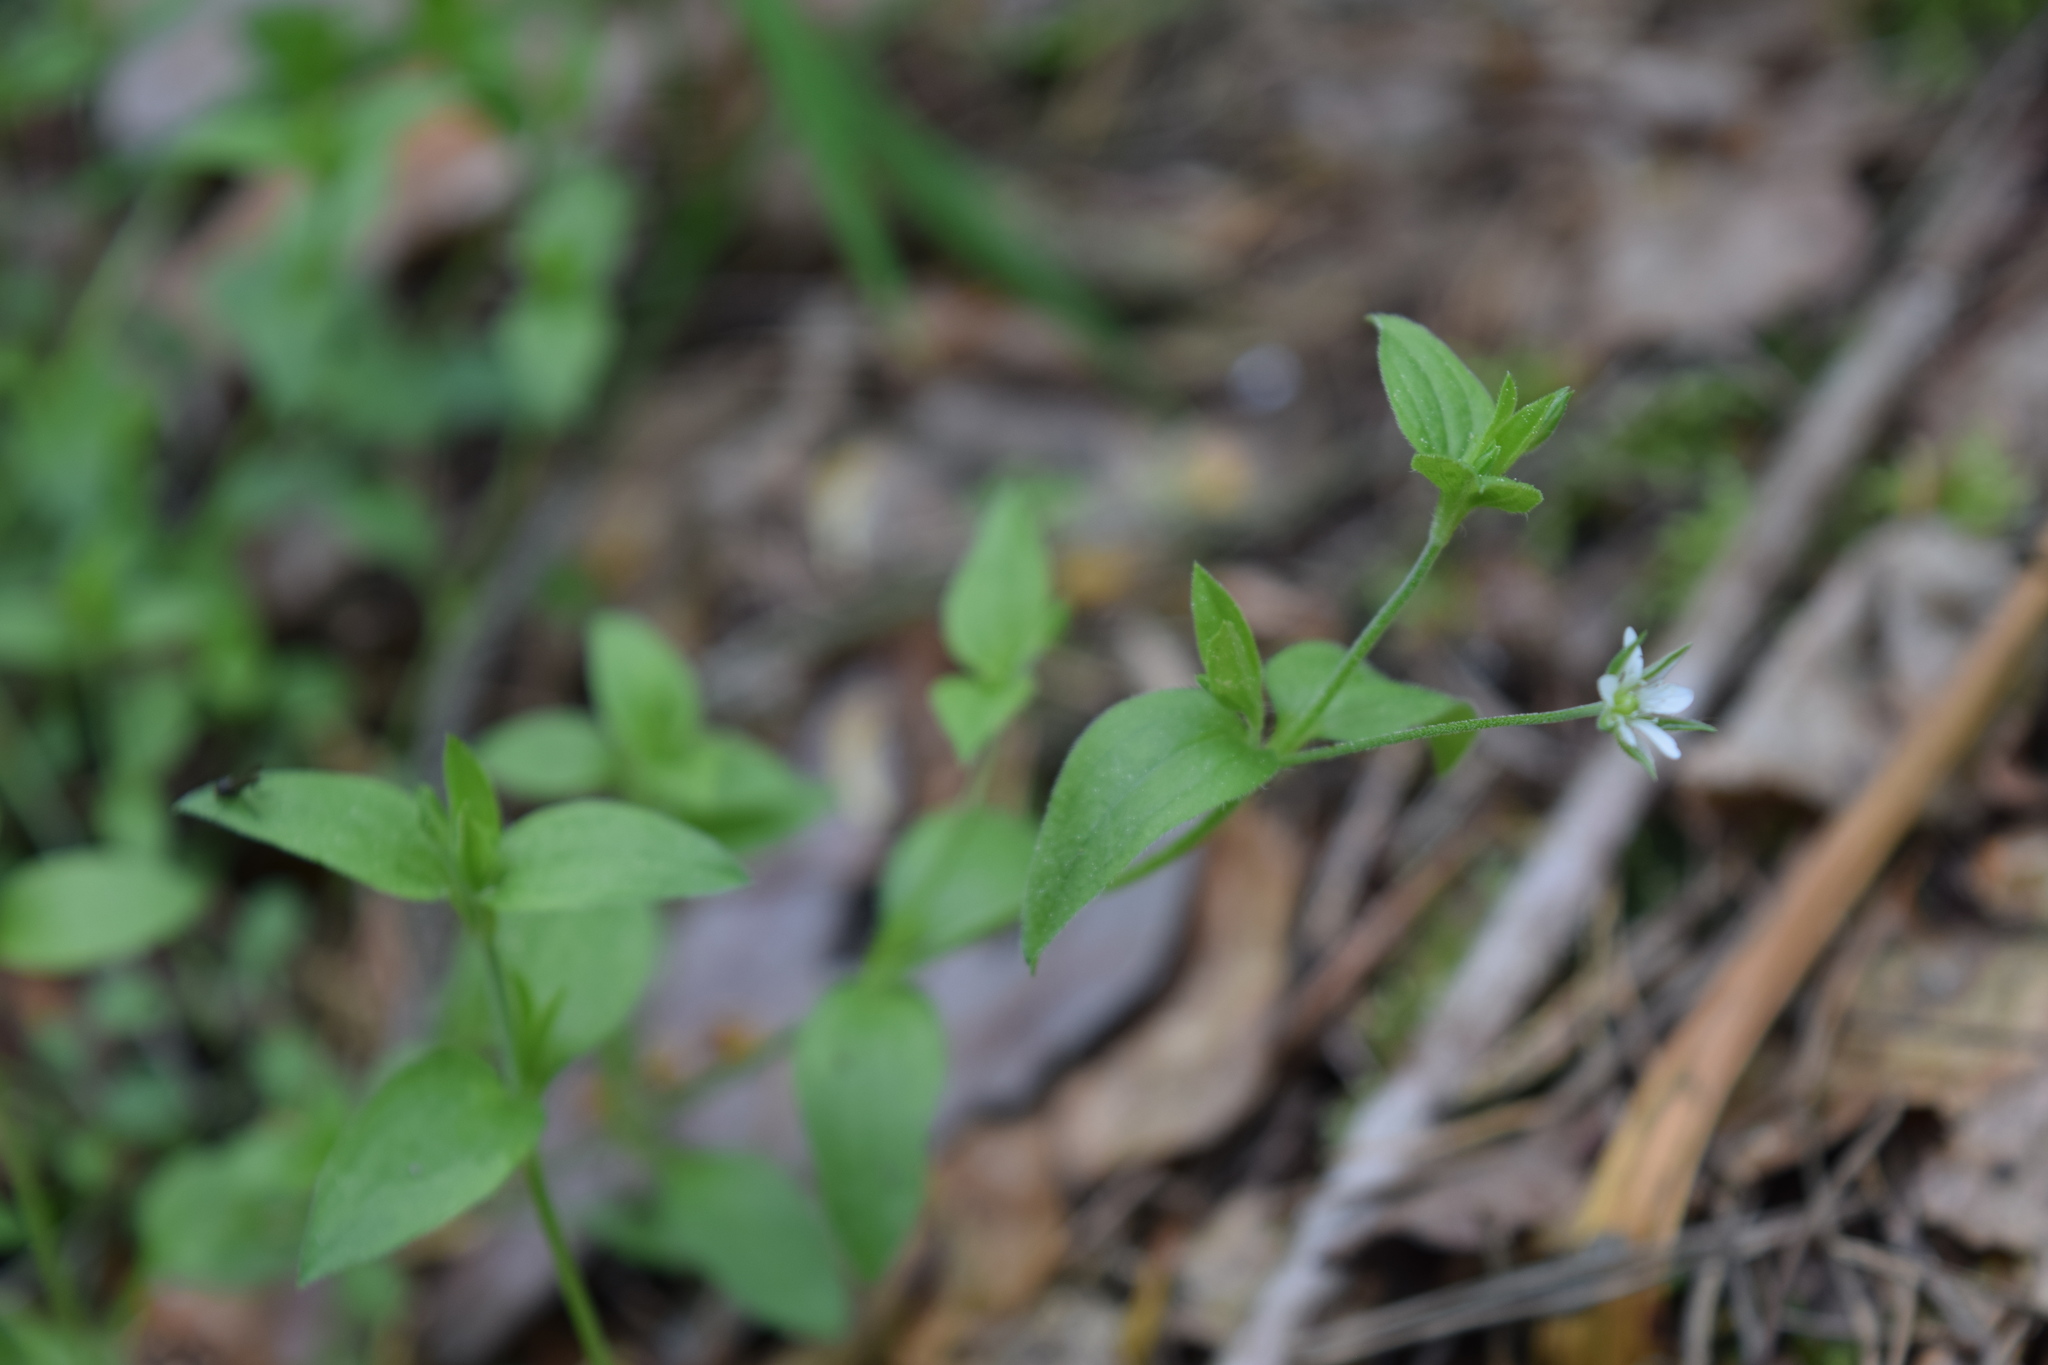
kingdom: Plantae
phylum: Tracheophyta
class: Magnoliopsida
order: Caryophyllales
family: Caryophyllaceae
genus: Moehringia
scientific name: Moehringia trinervia
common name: Three-nerved sandwort
